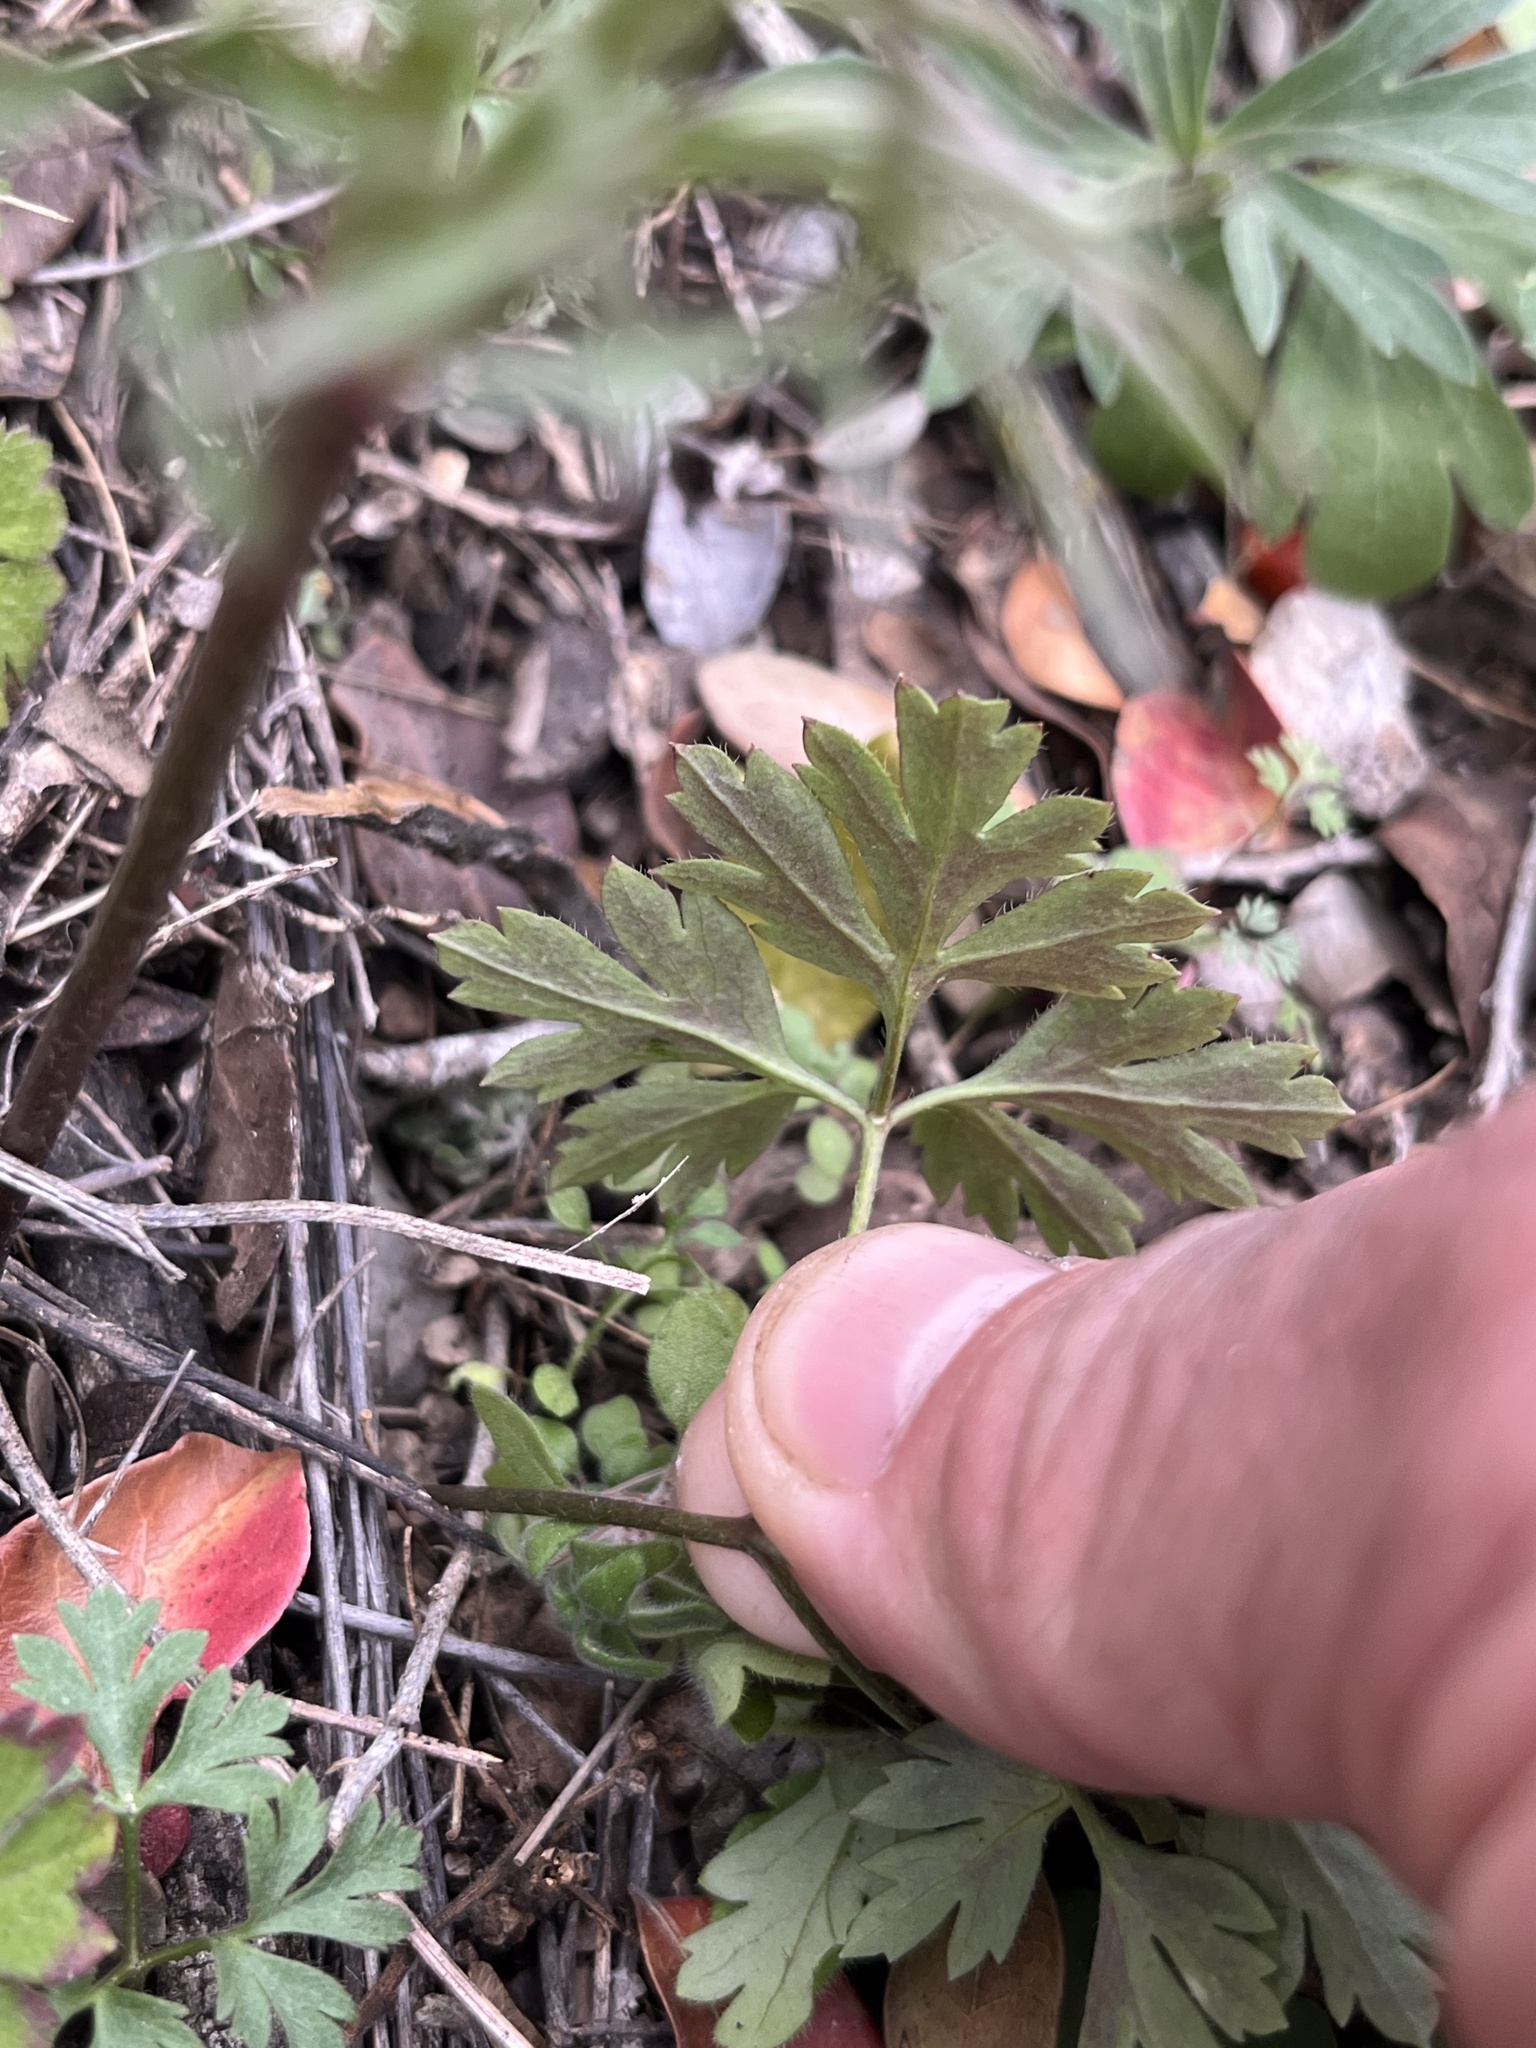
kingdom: Plantae
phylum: Tracheophyta
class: Magnoliopsida
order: Ranunculales
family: Ranunculaceae
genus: Anemone
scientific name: Anemone tuberosa
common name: Desert anemone
